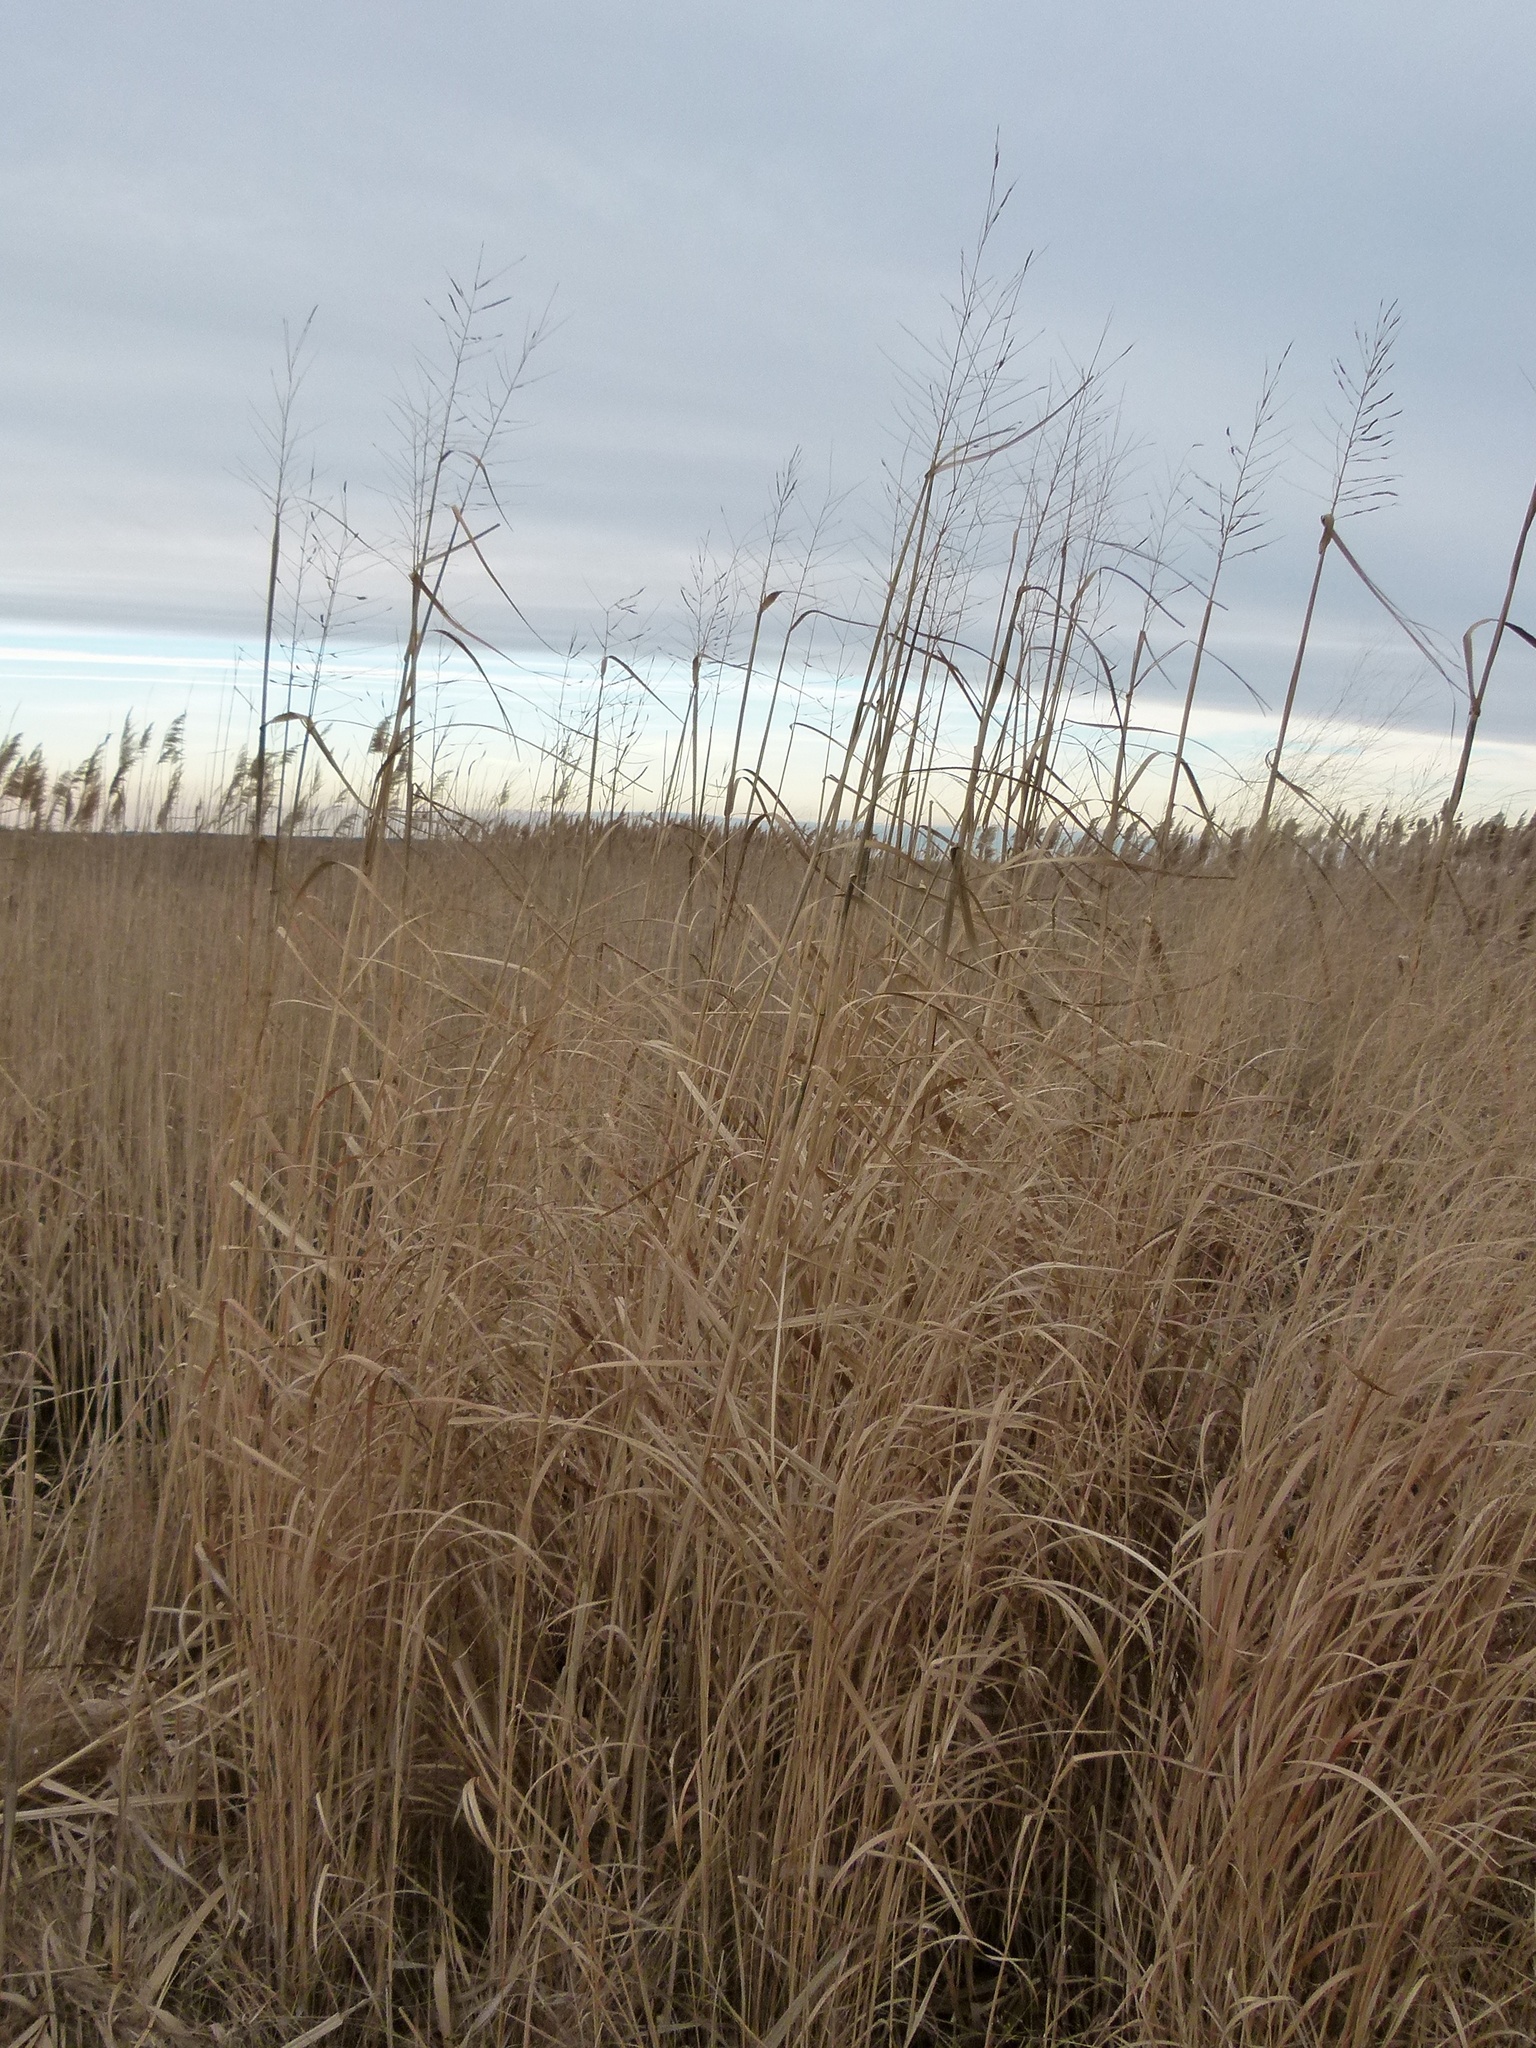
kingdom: Plantae
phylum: Tracheophyta
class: Liliopsida
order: Poales
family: Poaceae
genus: Sporobolus
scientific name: Sporobolus cynosuroides
